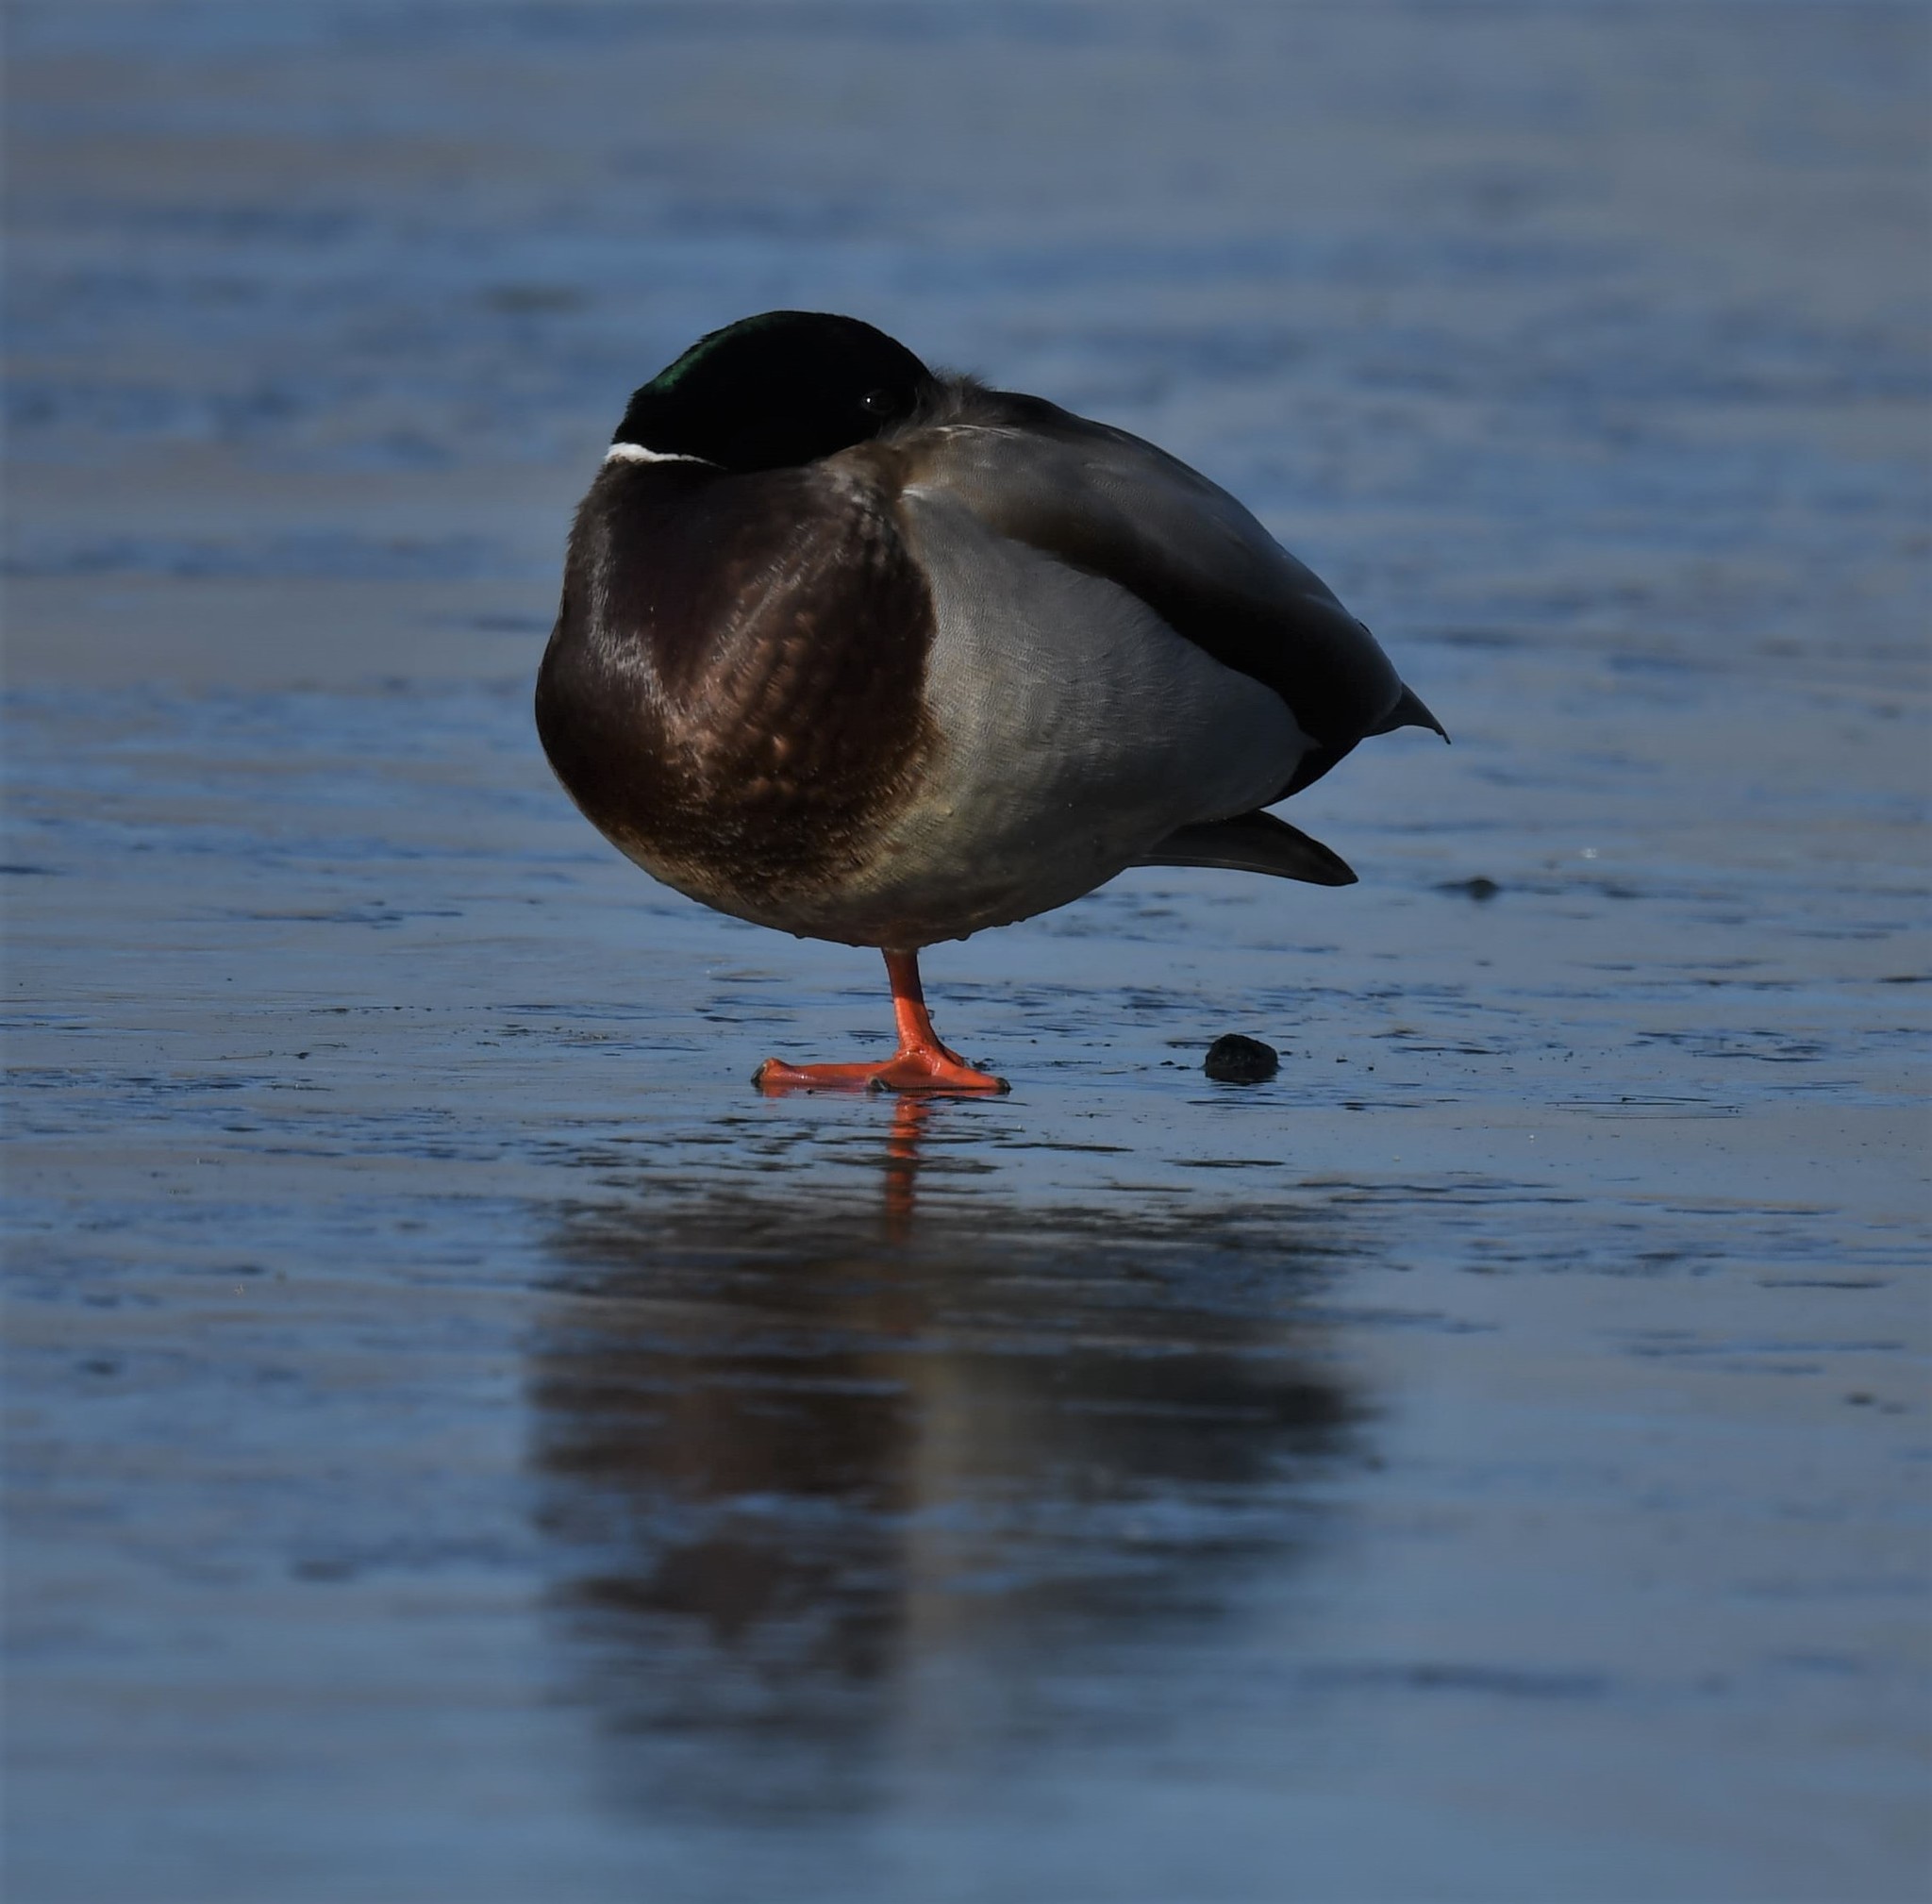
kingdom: Animalia
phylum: Chordata
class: Aves
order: Anseriformes
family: Anatidae
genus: Anas
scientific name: Anas platyrhynchos
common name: Mallard
